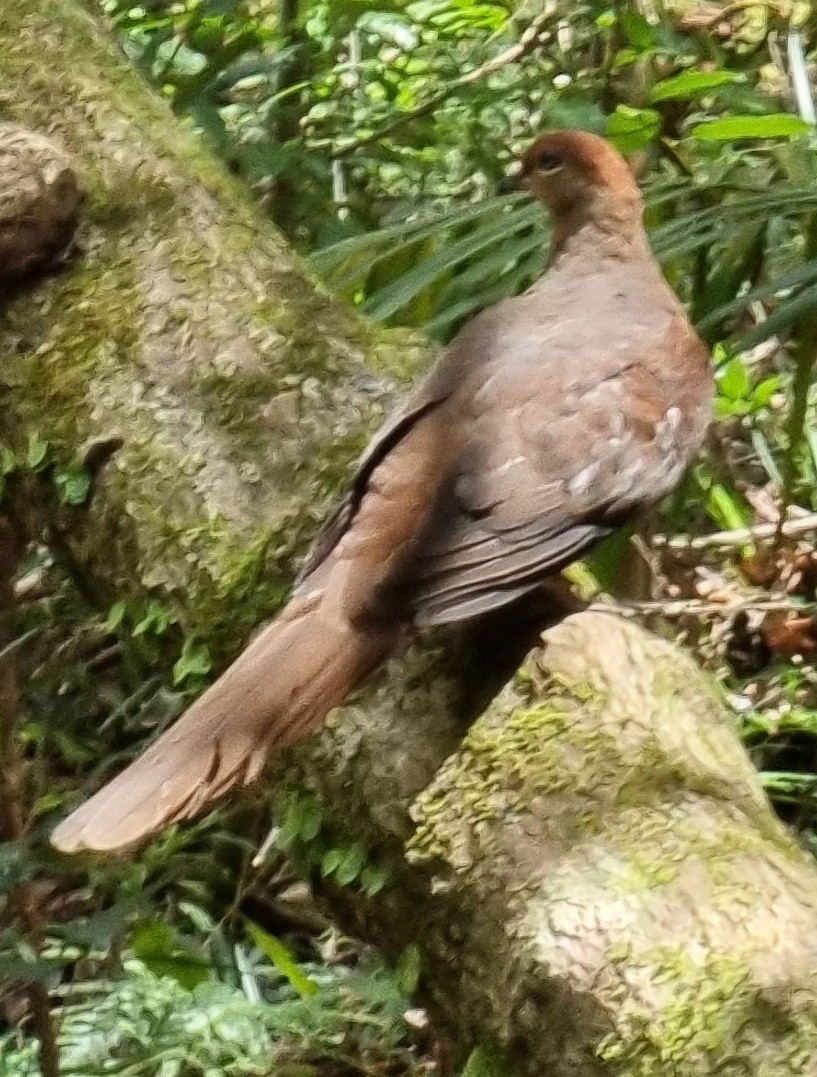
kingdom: Animalia
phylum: Chordata
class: Aves
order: Columbiformes
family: Columbidae
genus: Macropygia
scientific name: Macropygia phasianella
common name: Brown cuckoo-dove
